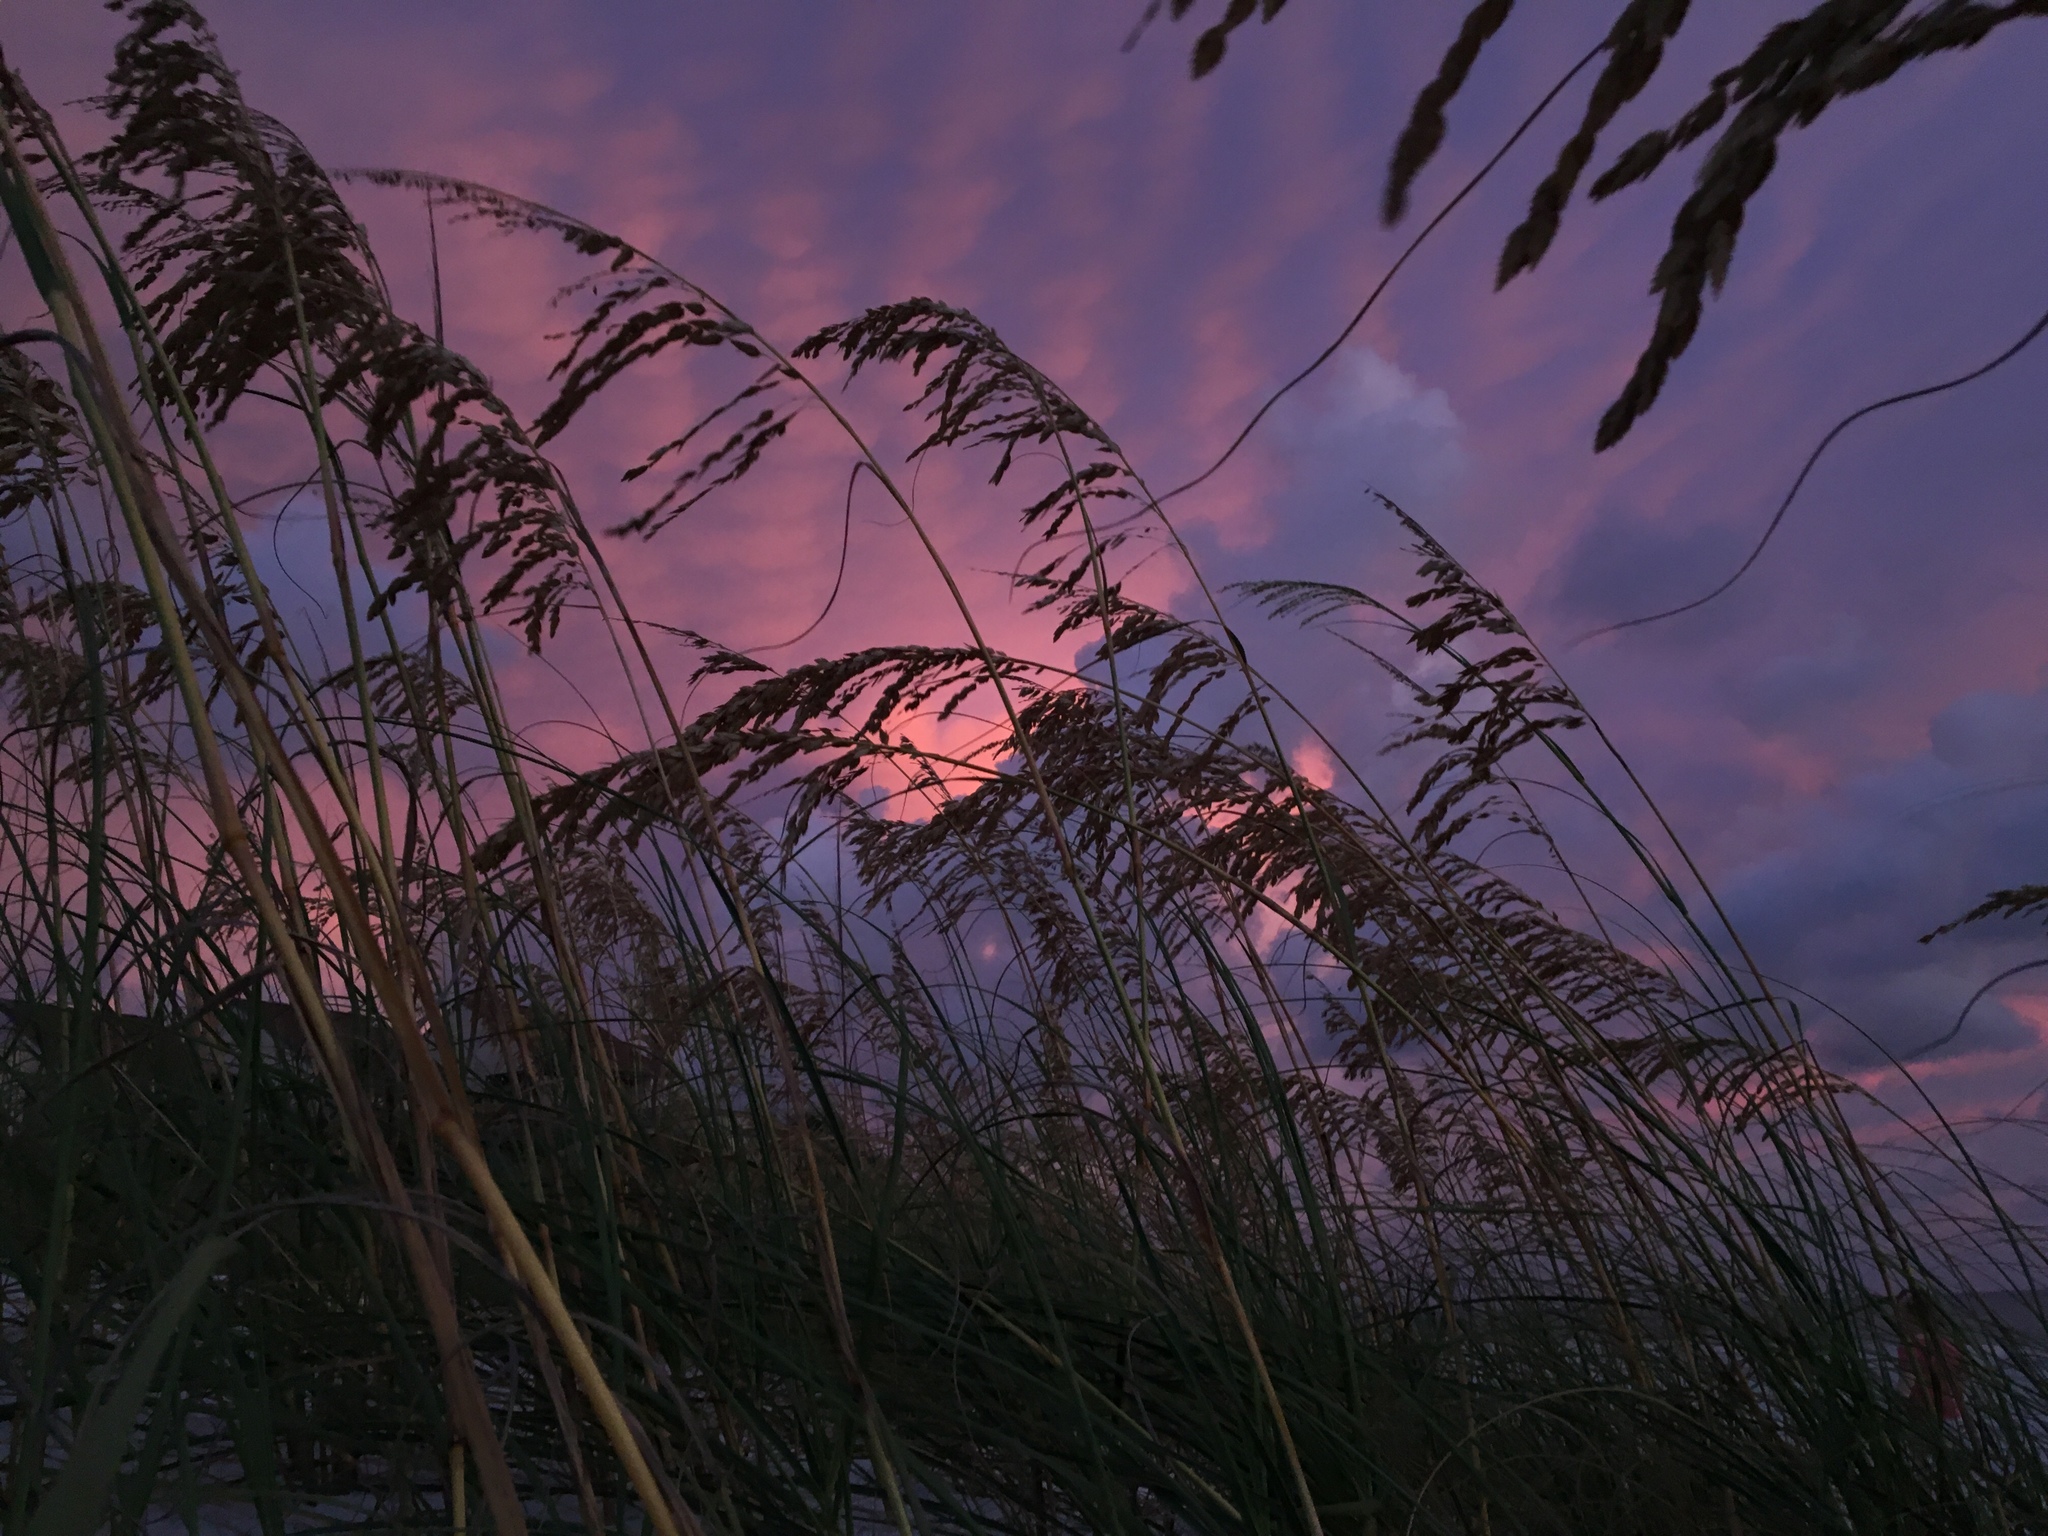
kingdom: Plantae
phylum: Tracheophyta
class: Liliopsida
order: Poales
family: Poaceae
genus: Uniola
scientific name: Uniola paniculata
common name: Seaside-oats
